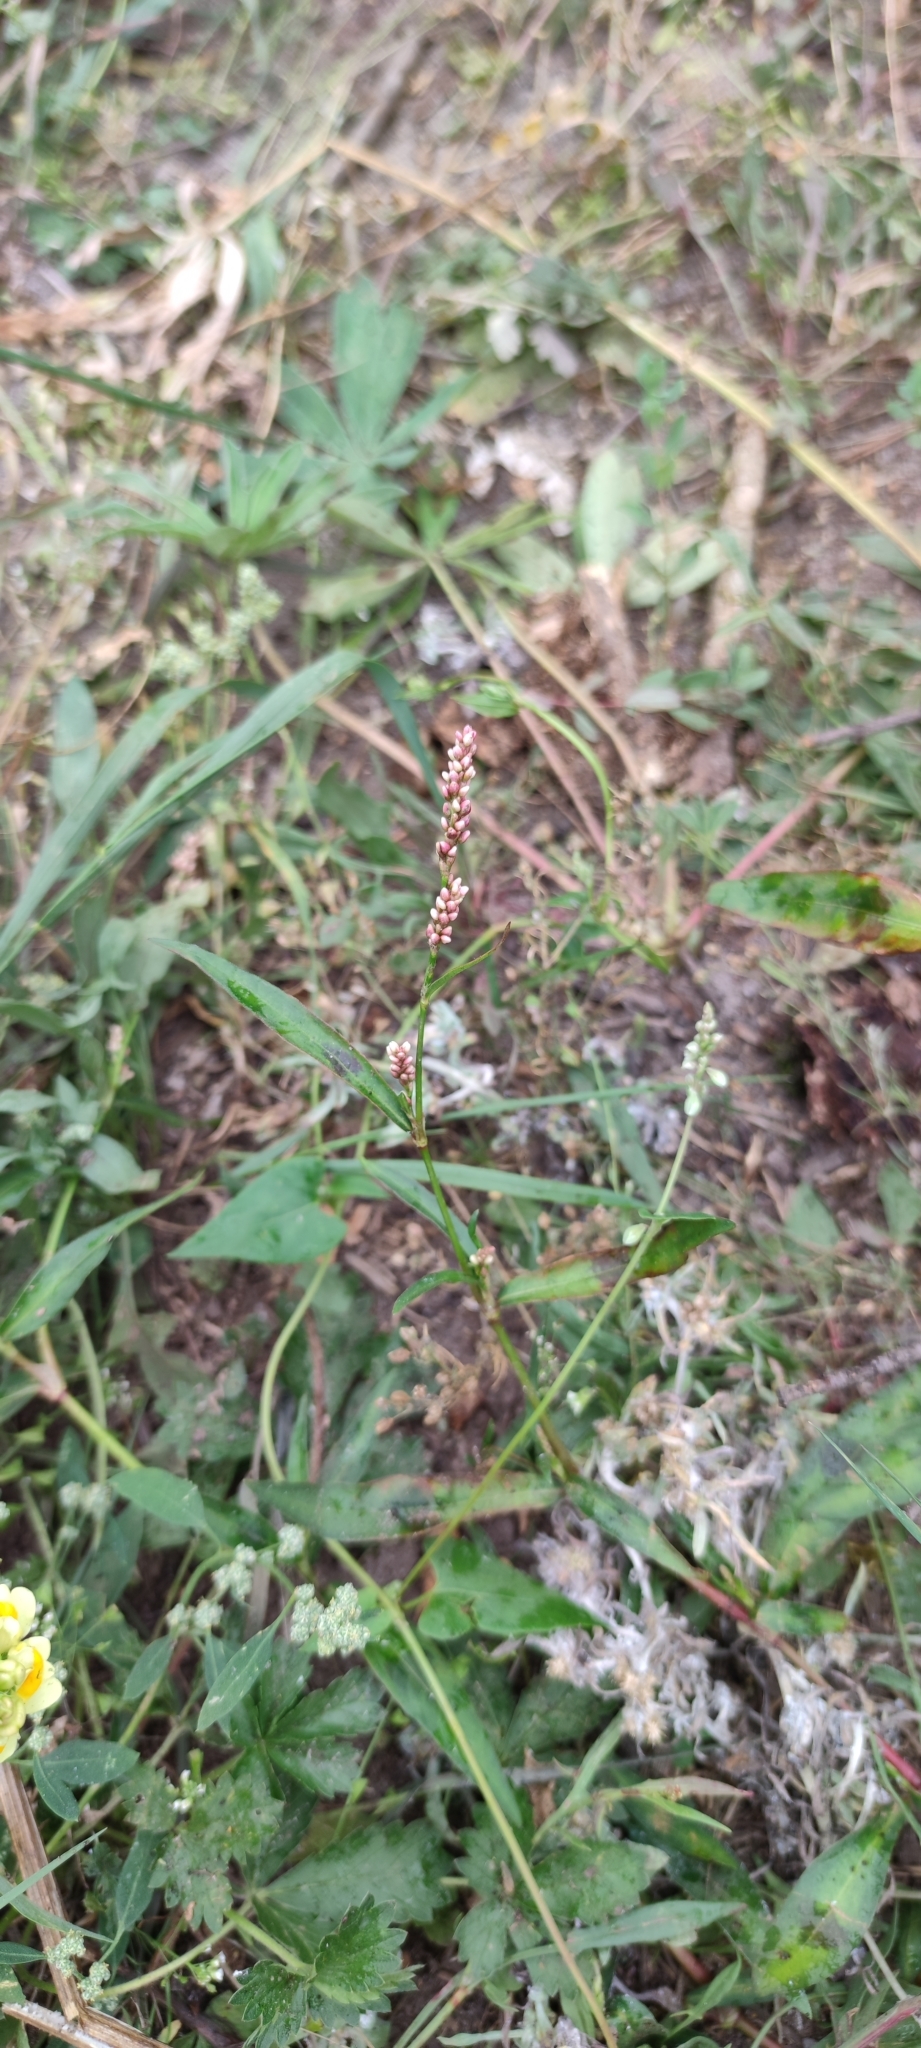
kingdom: Plantae
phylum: Tracheophyta
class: Magnoliopsida
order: Caryophyllales
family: Polygonaceae
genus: Persicaria
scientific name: Persicaria maculosa
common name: Redshank
